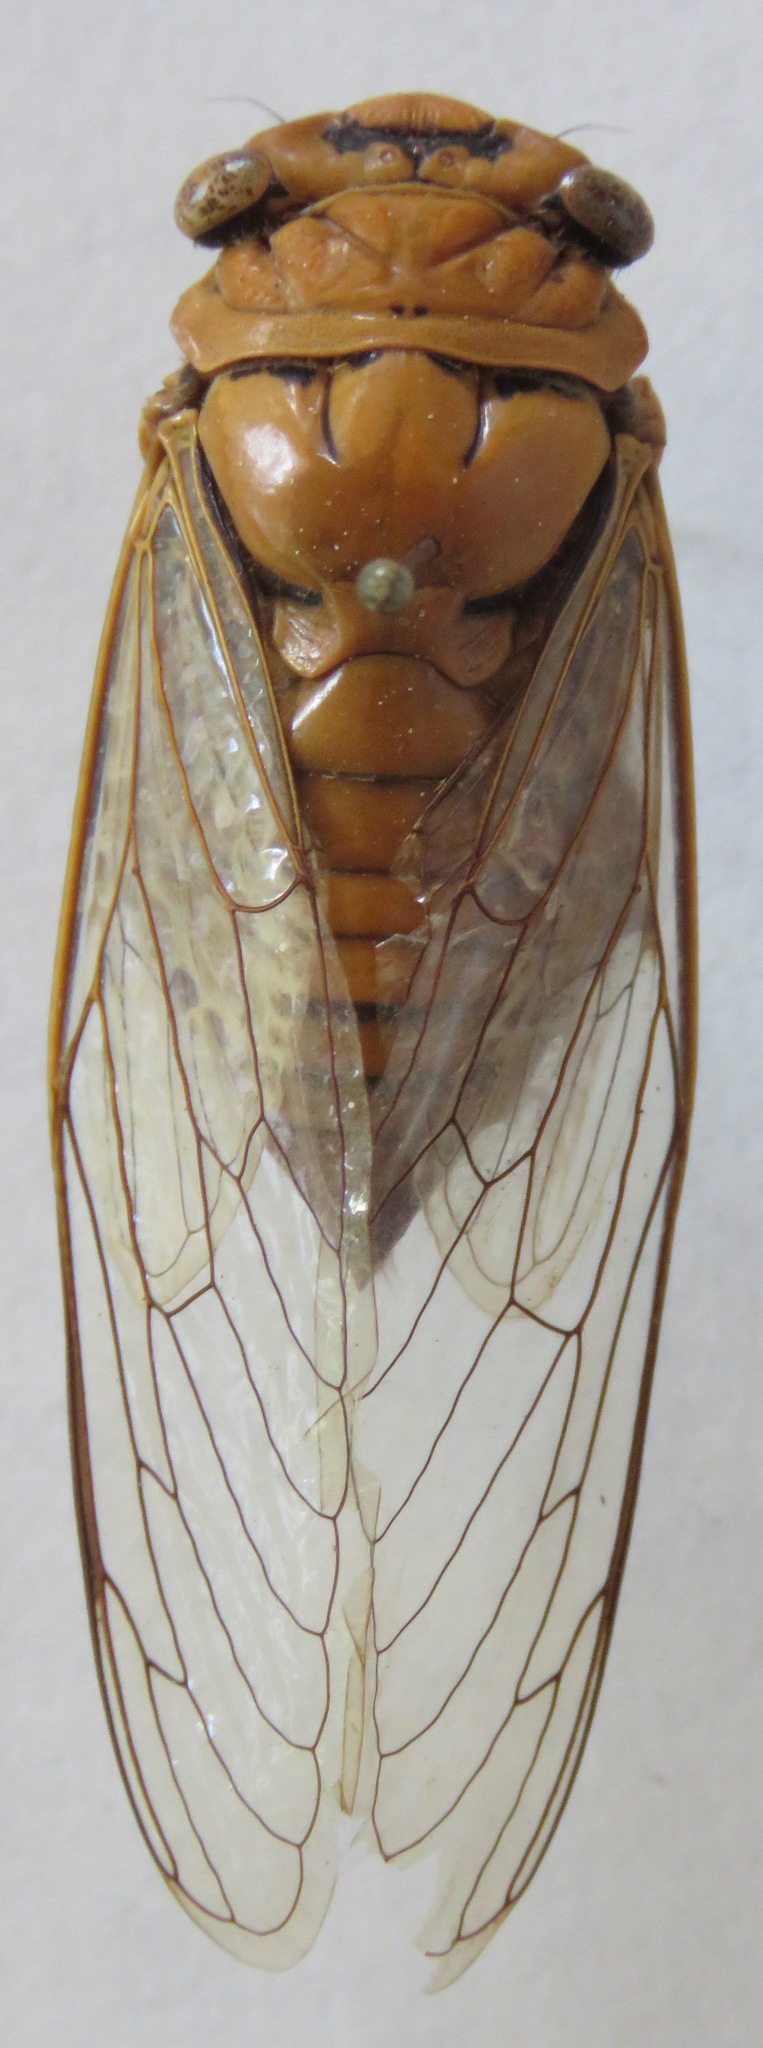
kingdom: Animalia
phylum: Arthropoda
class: Insecta
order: Hemiptera
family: Cicadidae
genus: Dorisiana
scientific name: Dorisiana amoena
